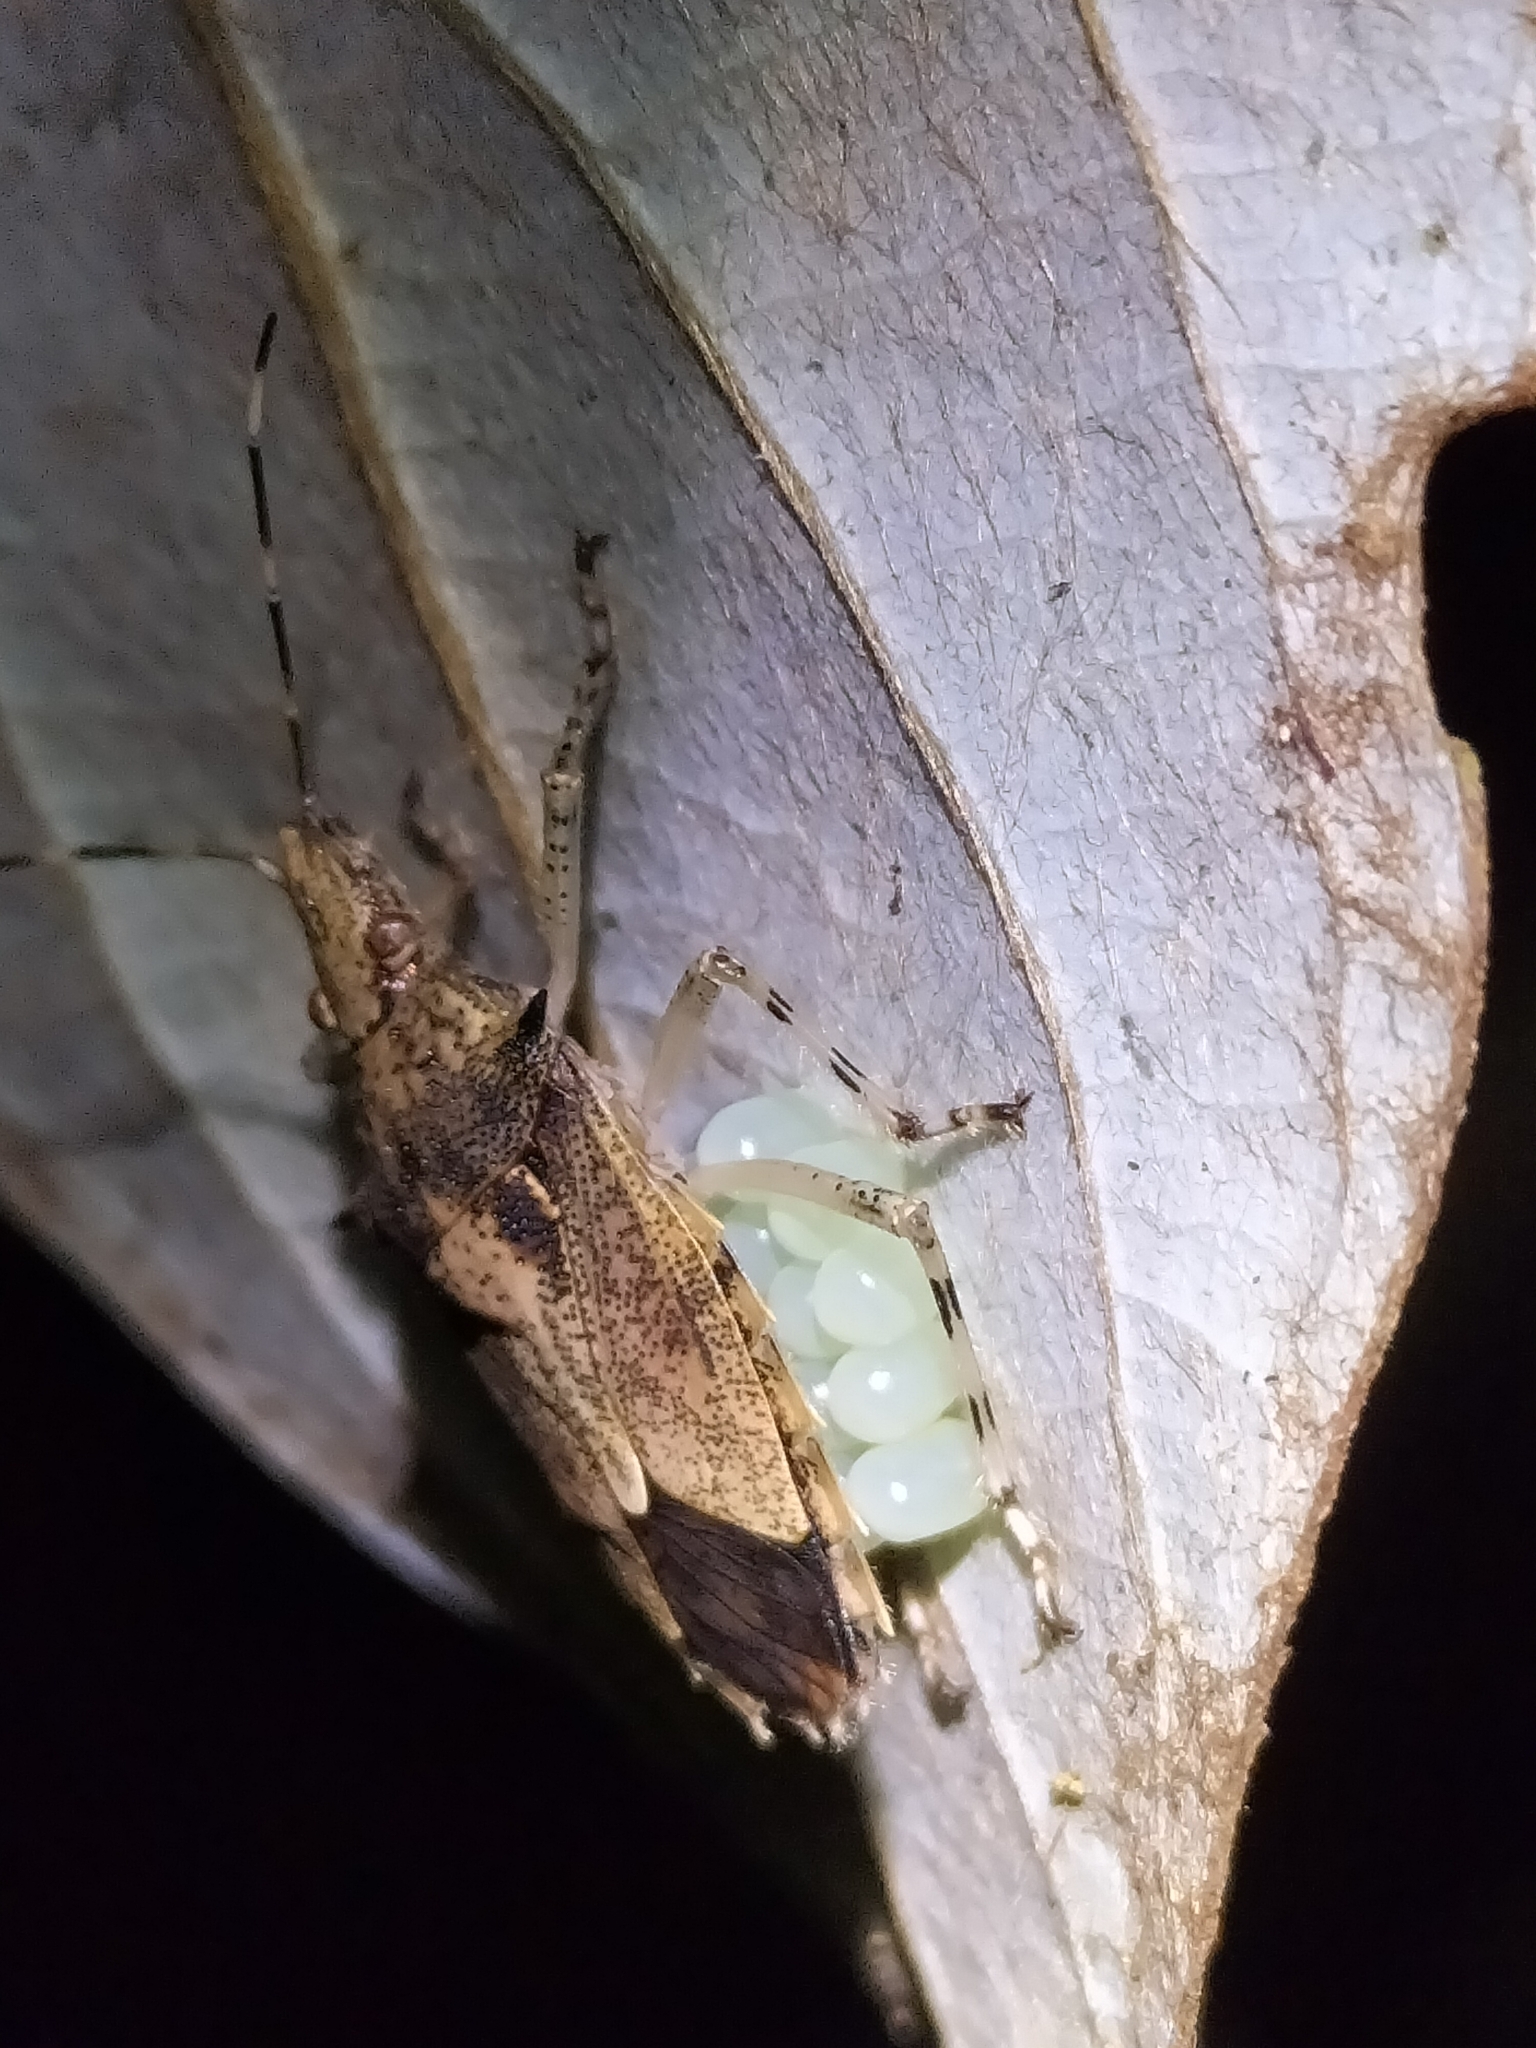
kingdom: Animalia
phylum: Arthropoda
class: Insecta
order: Hemiptera
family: Pentatomidae
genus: Bromocoris
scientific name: Bromocoris
